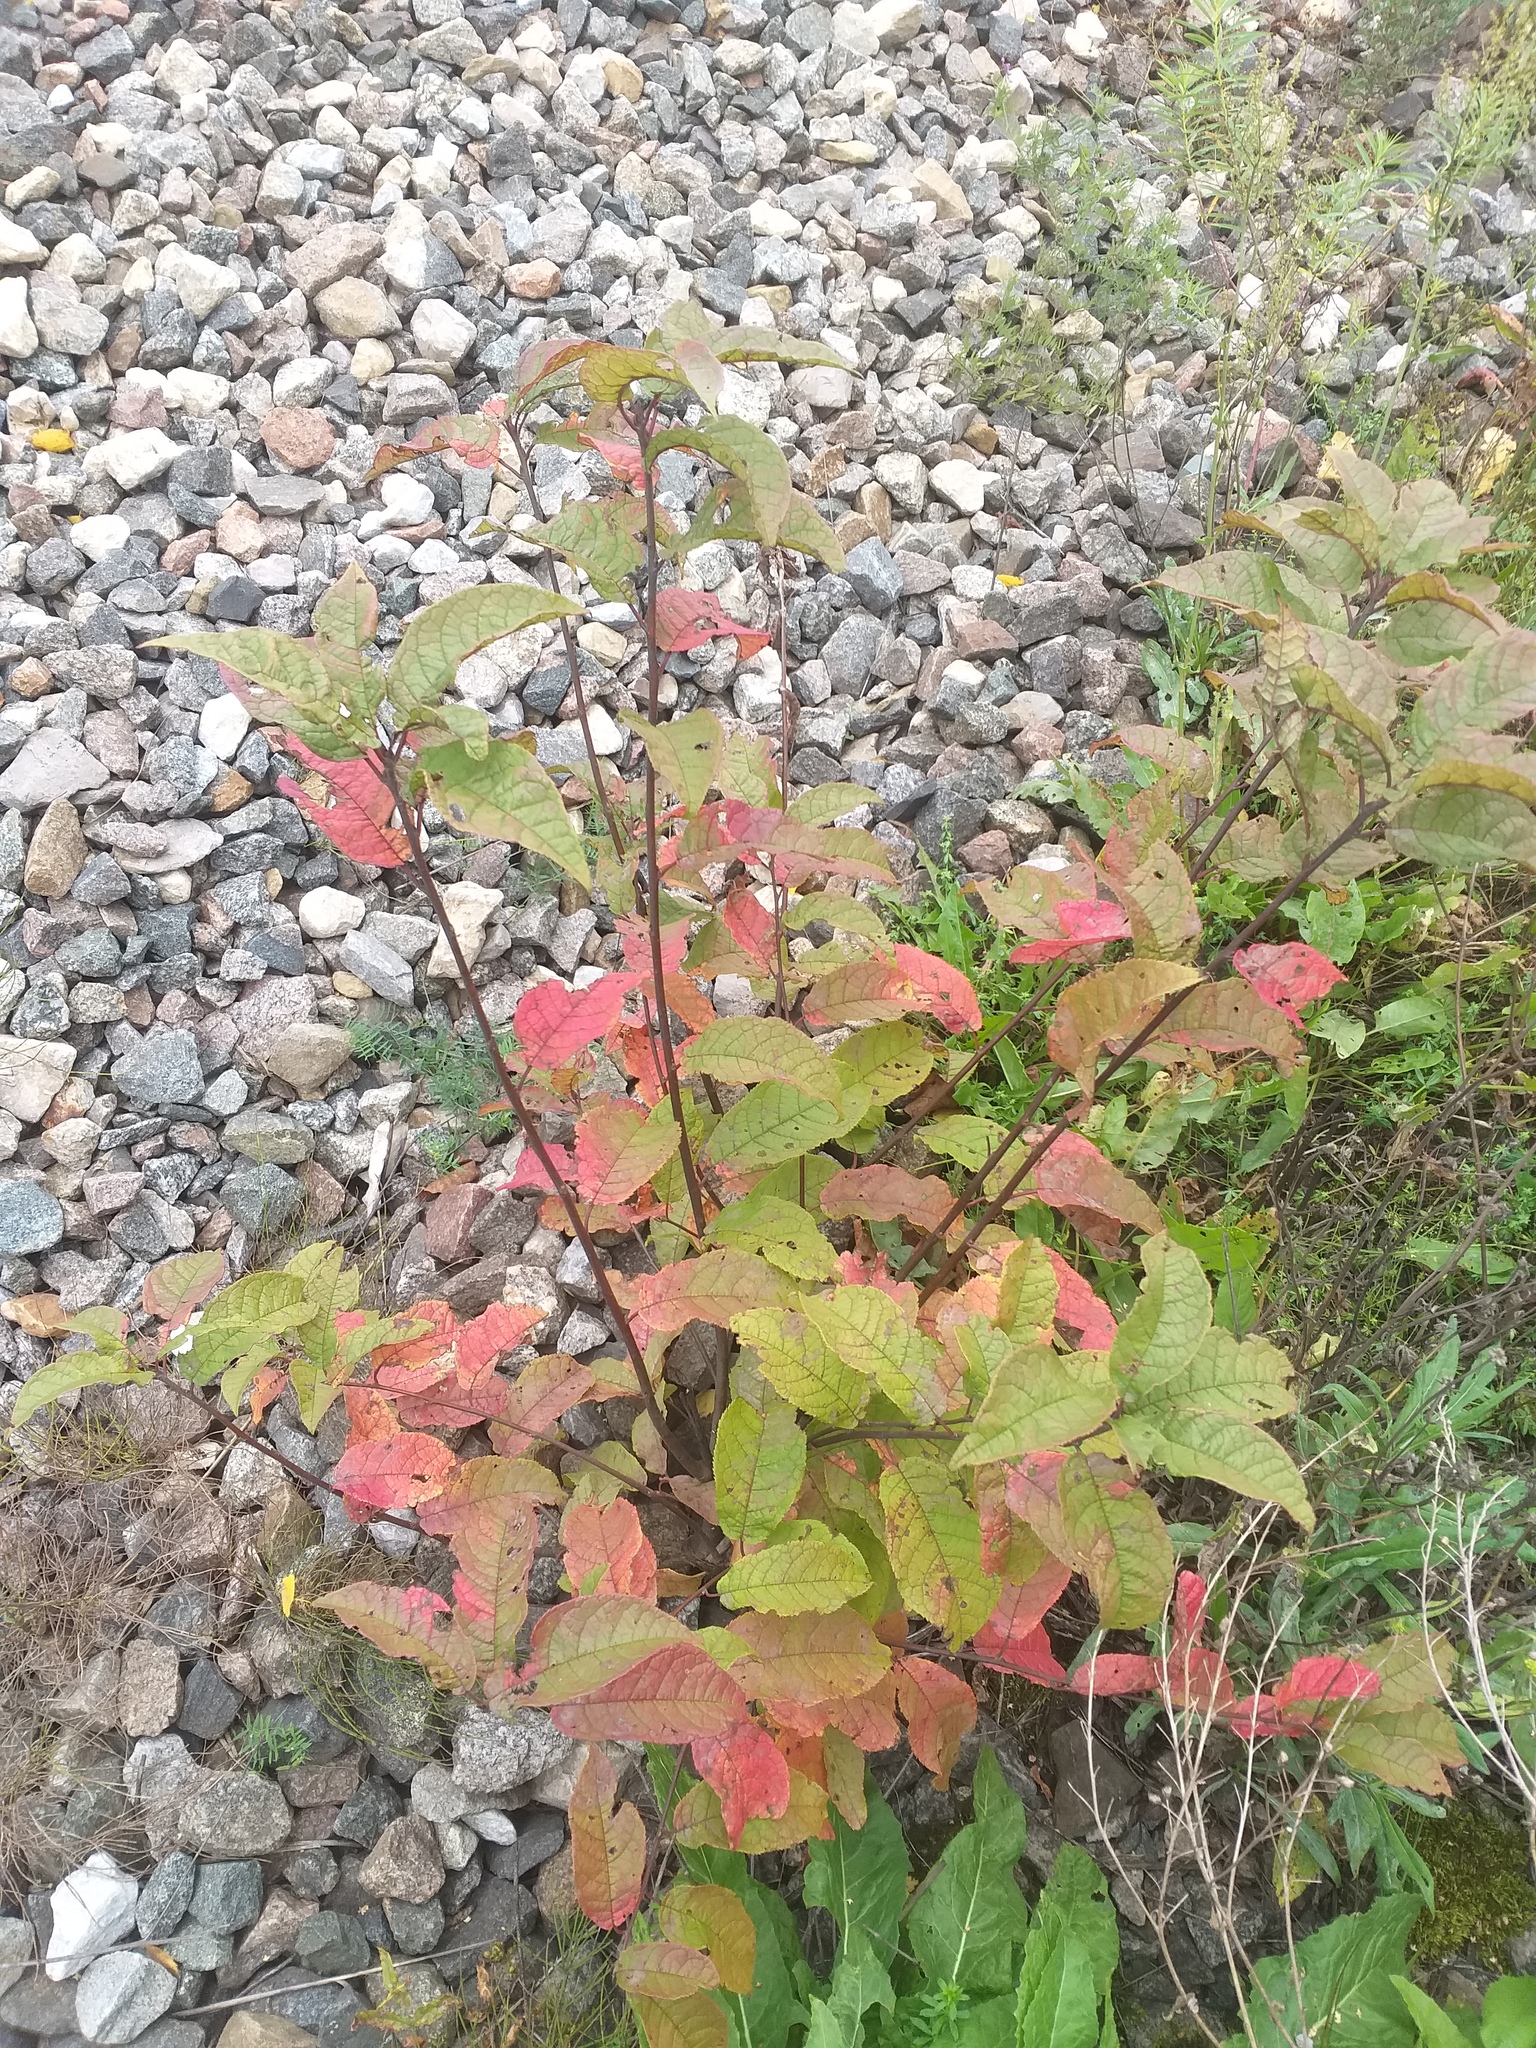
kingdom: Plantae
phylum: Tracheophyta
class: Magnoliopsida
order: Rosales
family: Rosaceae
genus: Prunus
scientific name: Prunus padus
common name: Bird cherry
